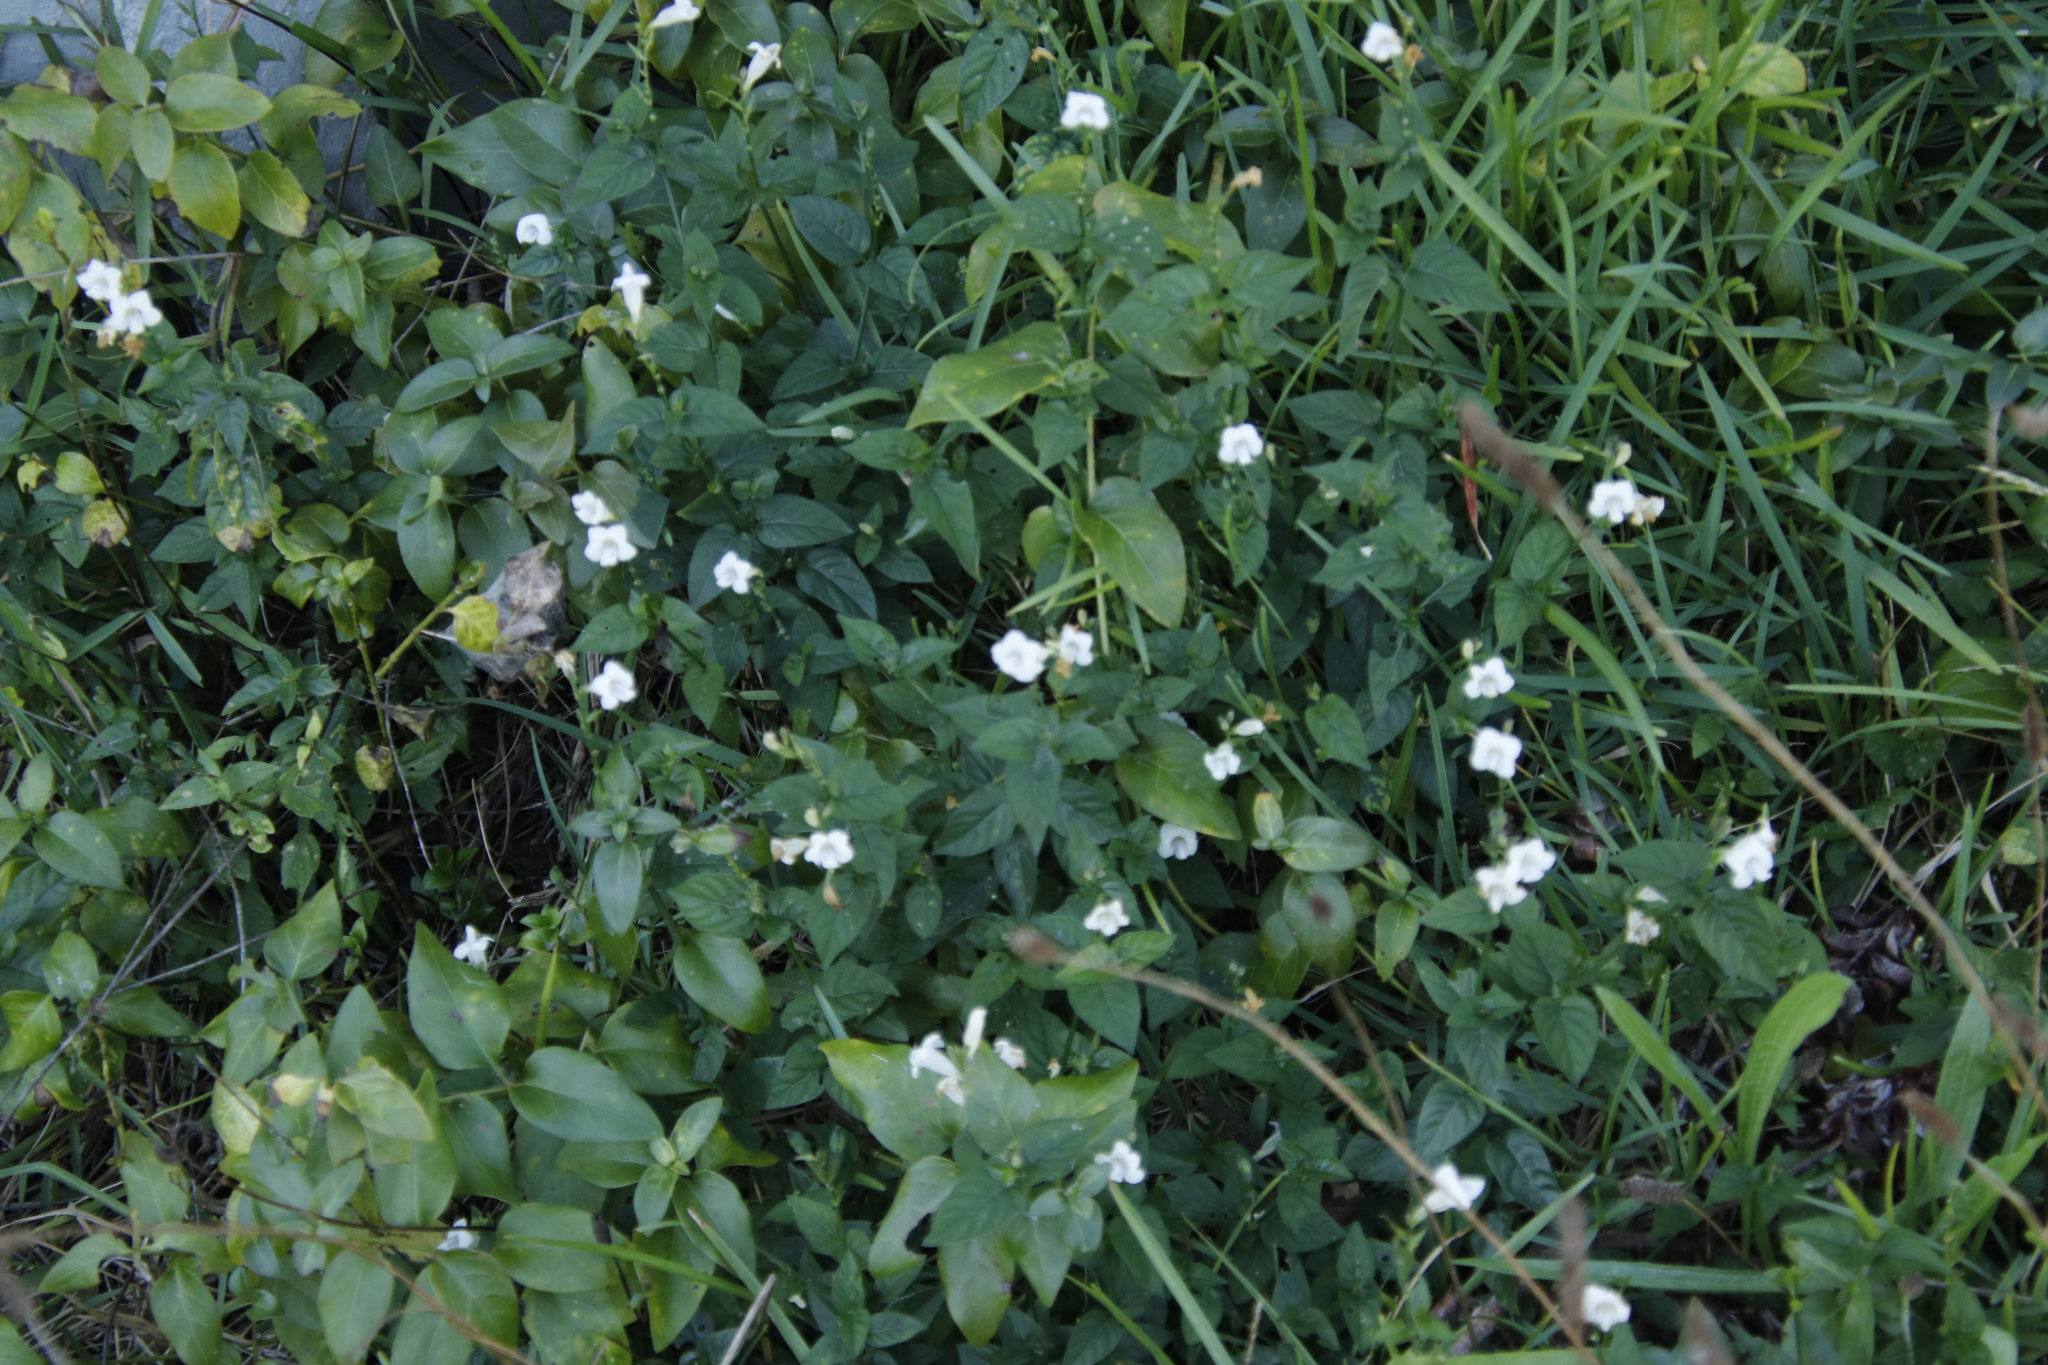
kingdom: Plantae
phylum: Tracheophyta
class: Magnoliopsida
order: Lamiales
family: Acanthaceae
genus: Asystasia
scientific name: Asystasia intrusa
